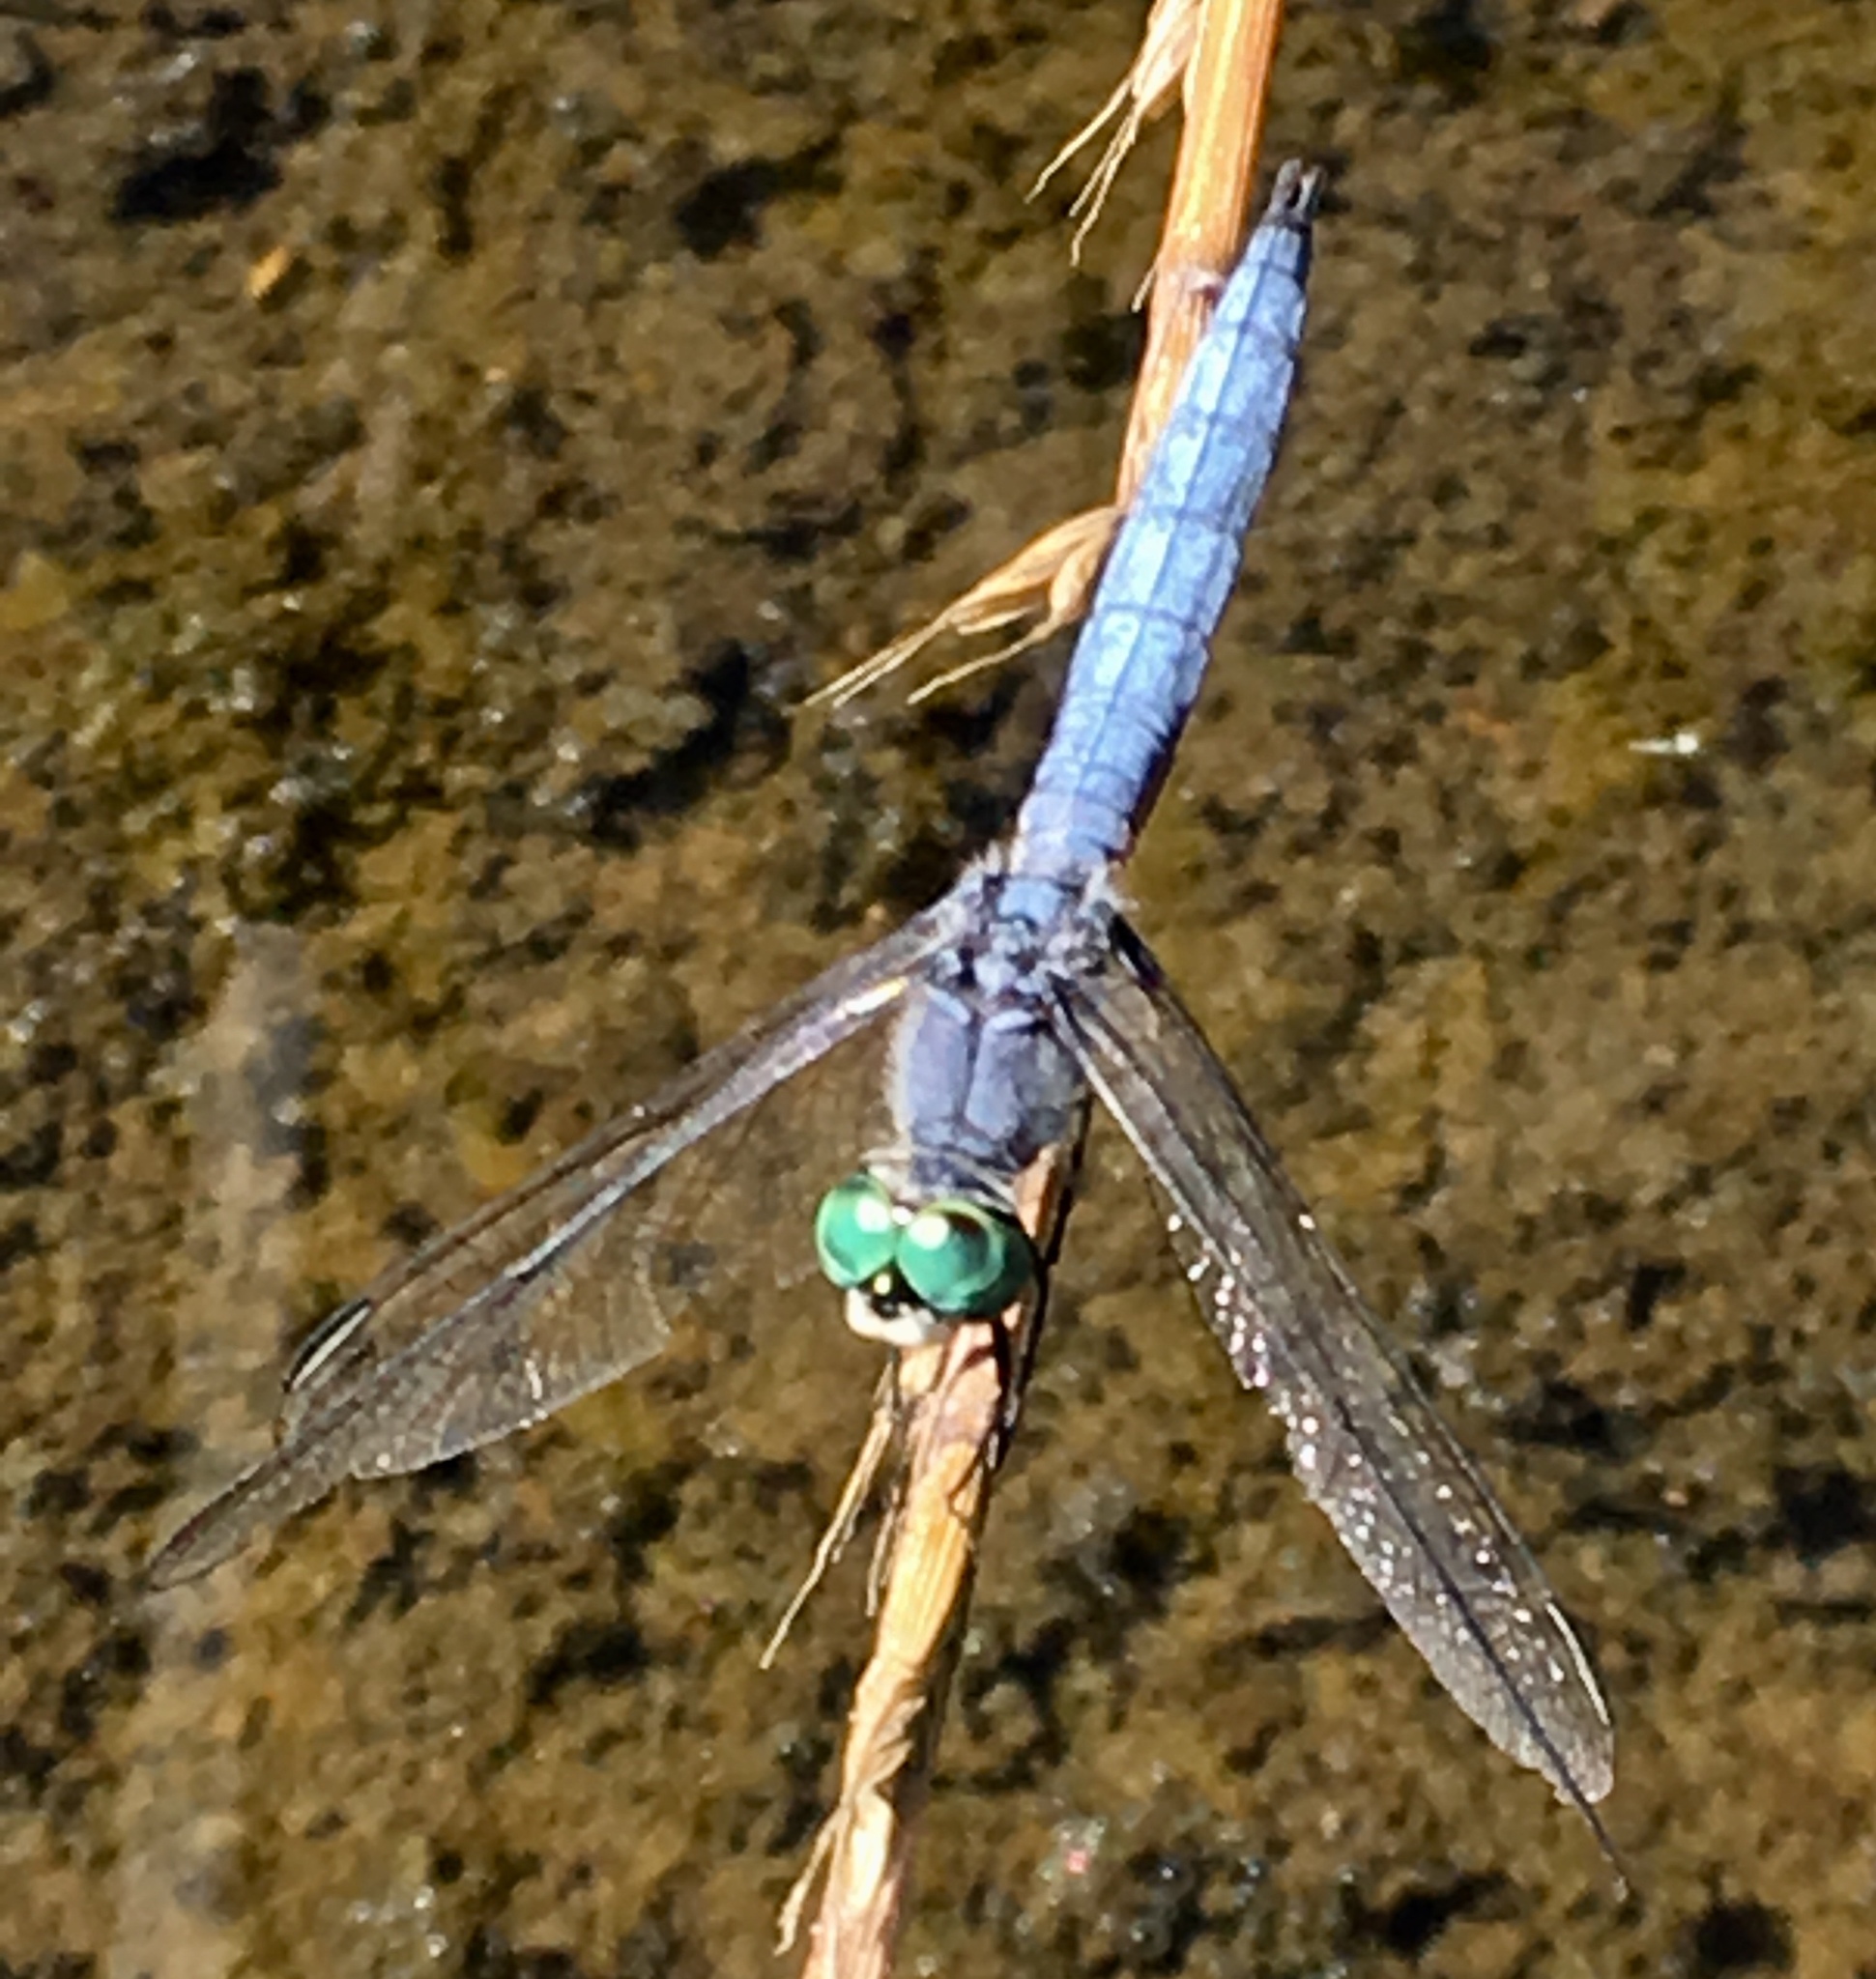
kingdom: Animalia
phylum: Arthropoda
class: Insecta
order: Odonata
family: Libellulidae
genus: Pachydiplax
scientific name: Pachydiplax longipennis
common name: Blue dasher
